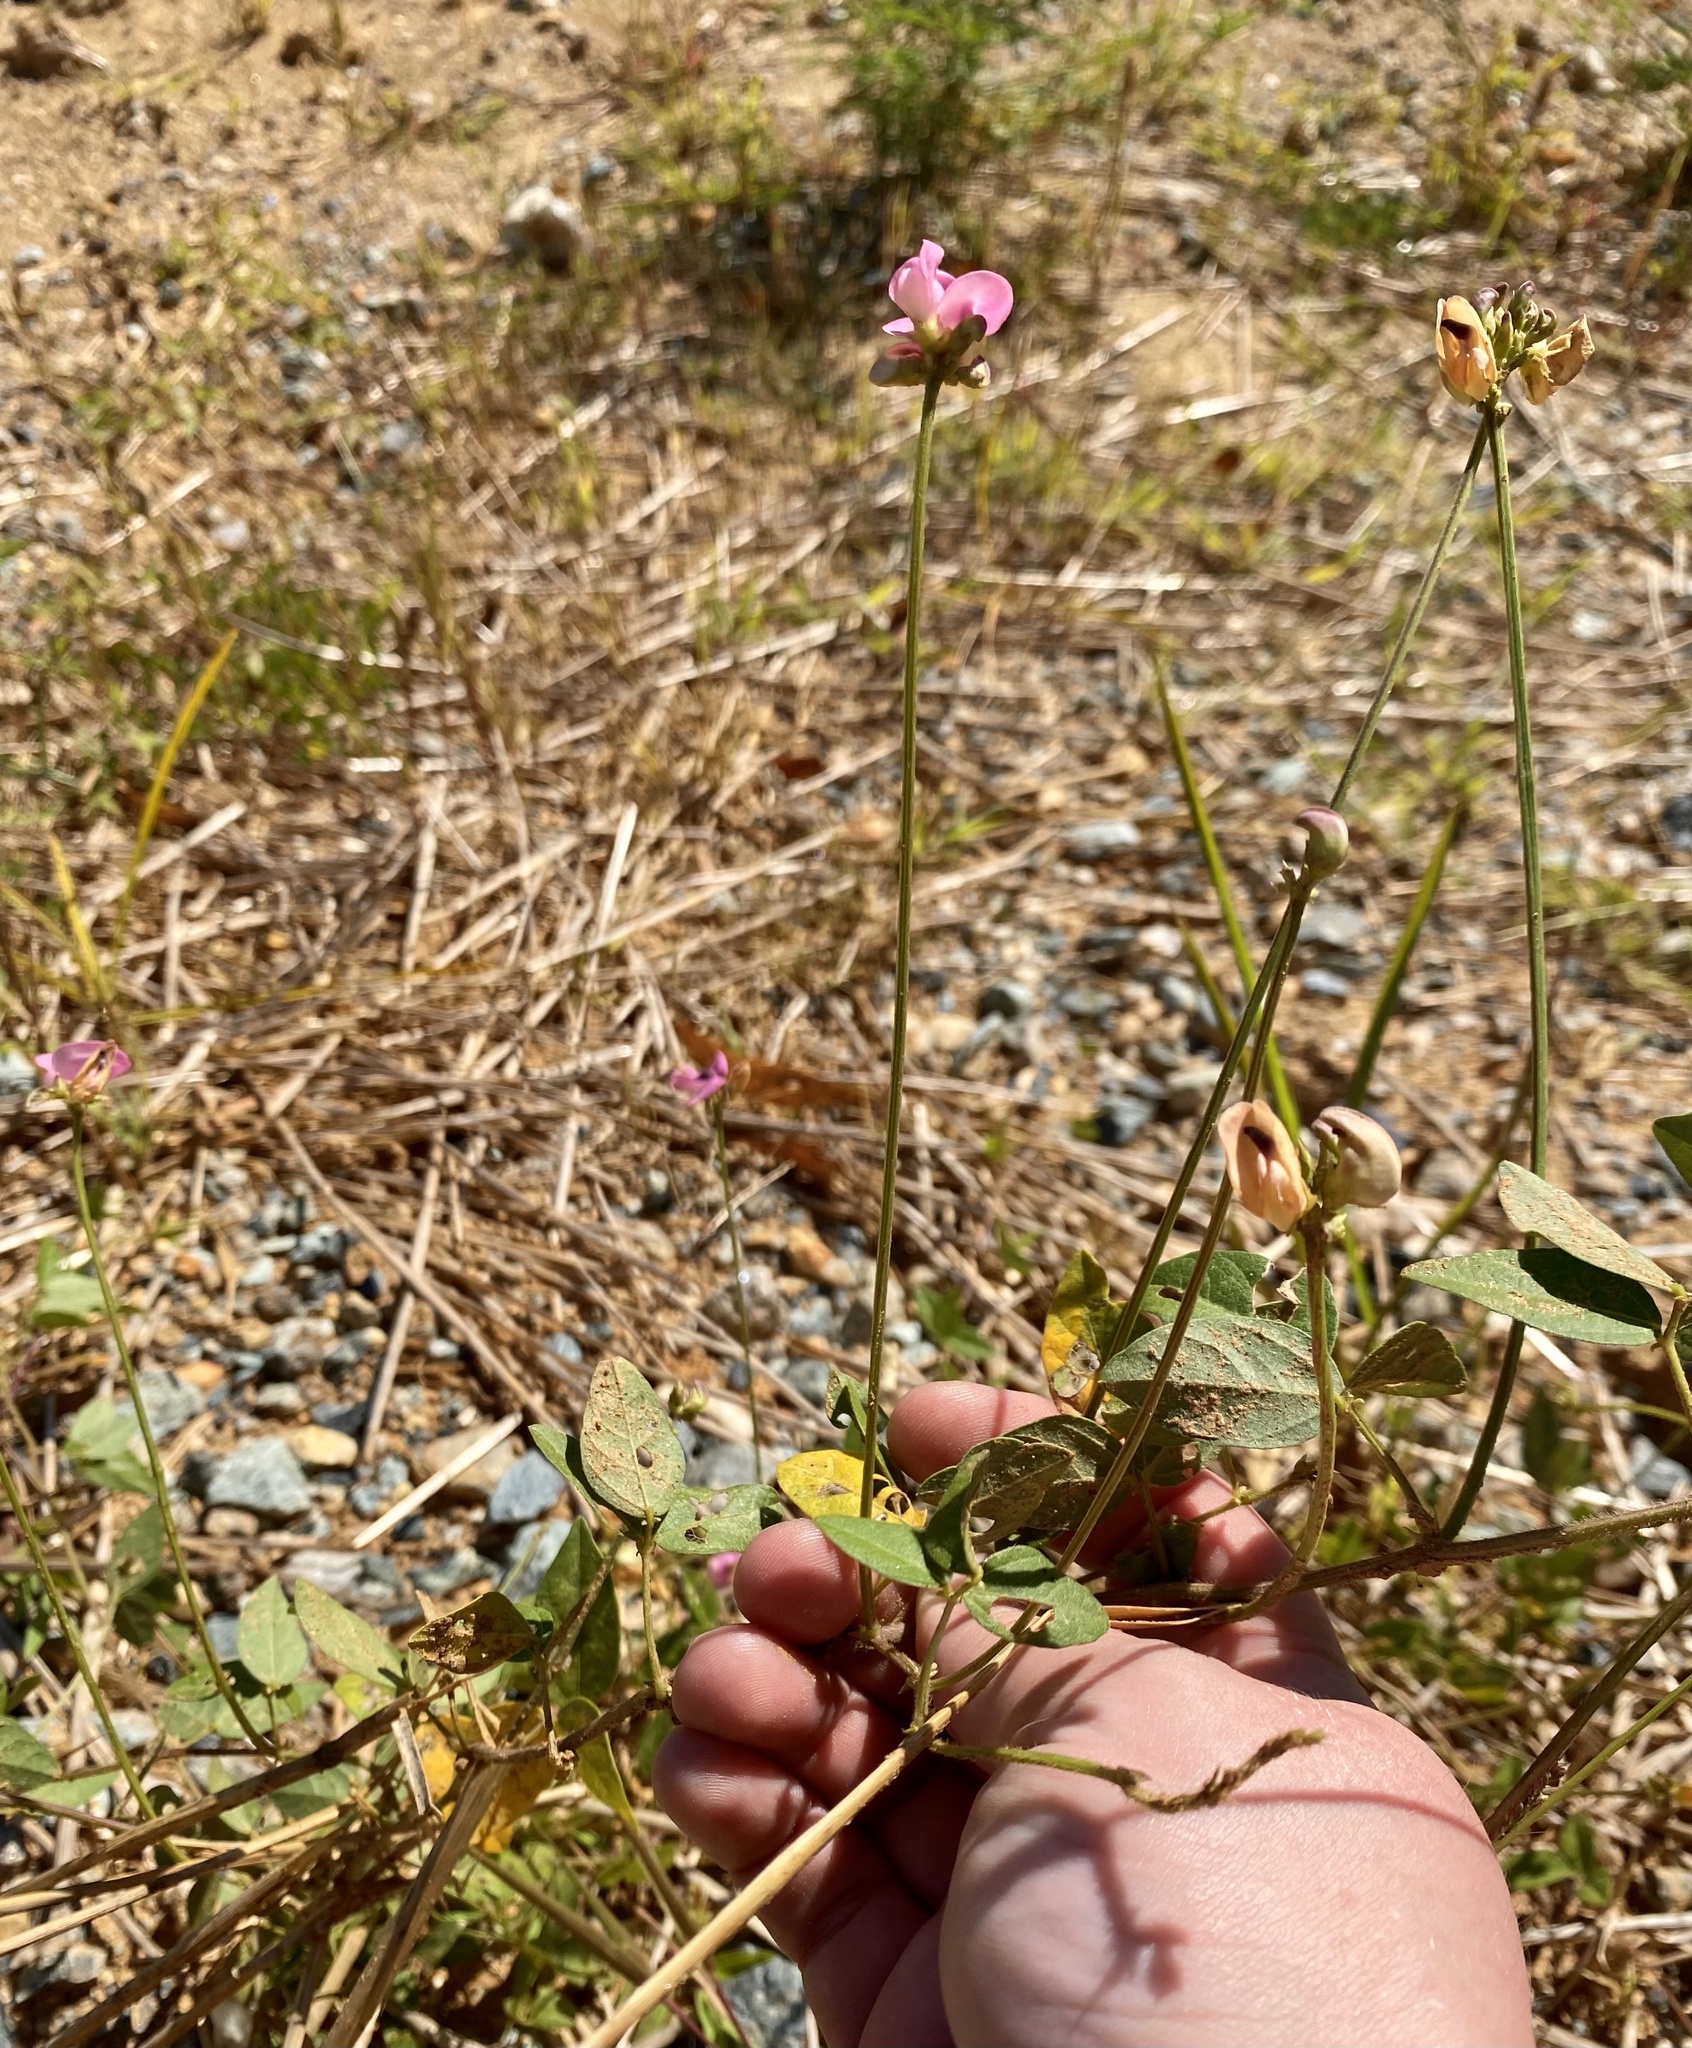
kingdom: Plantae
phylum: Tracheophyta
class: Magnoliopsida
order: Fabales
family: Fabaceae
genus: Strophostyles
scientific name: Strophostyles umbellata
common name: Perennial wild bean
